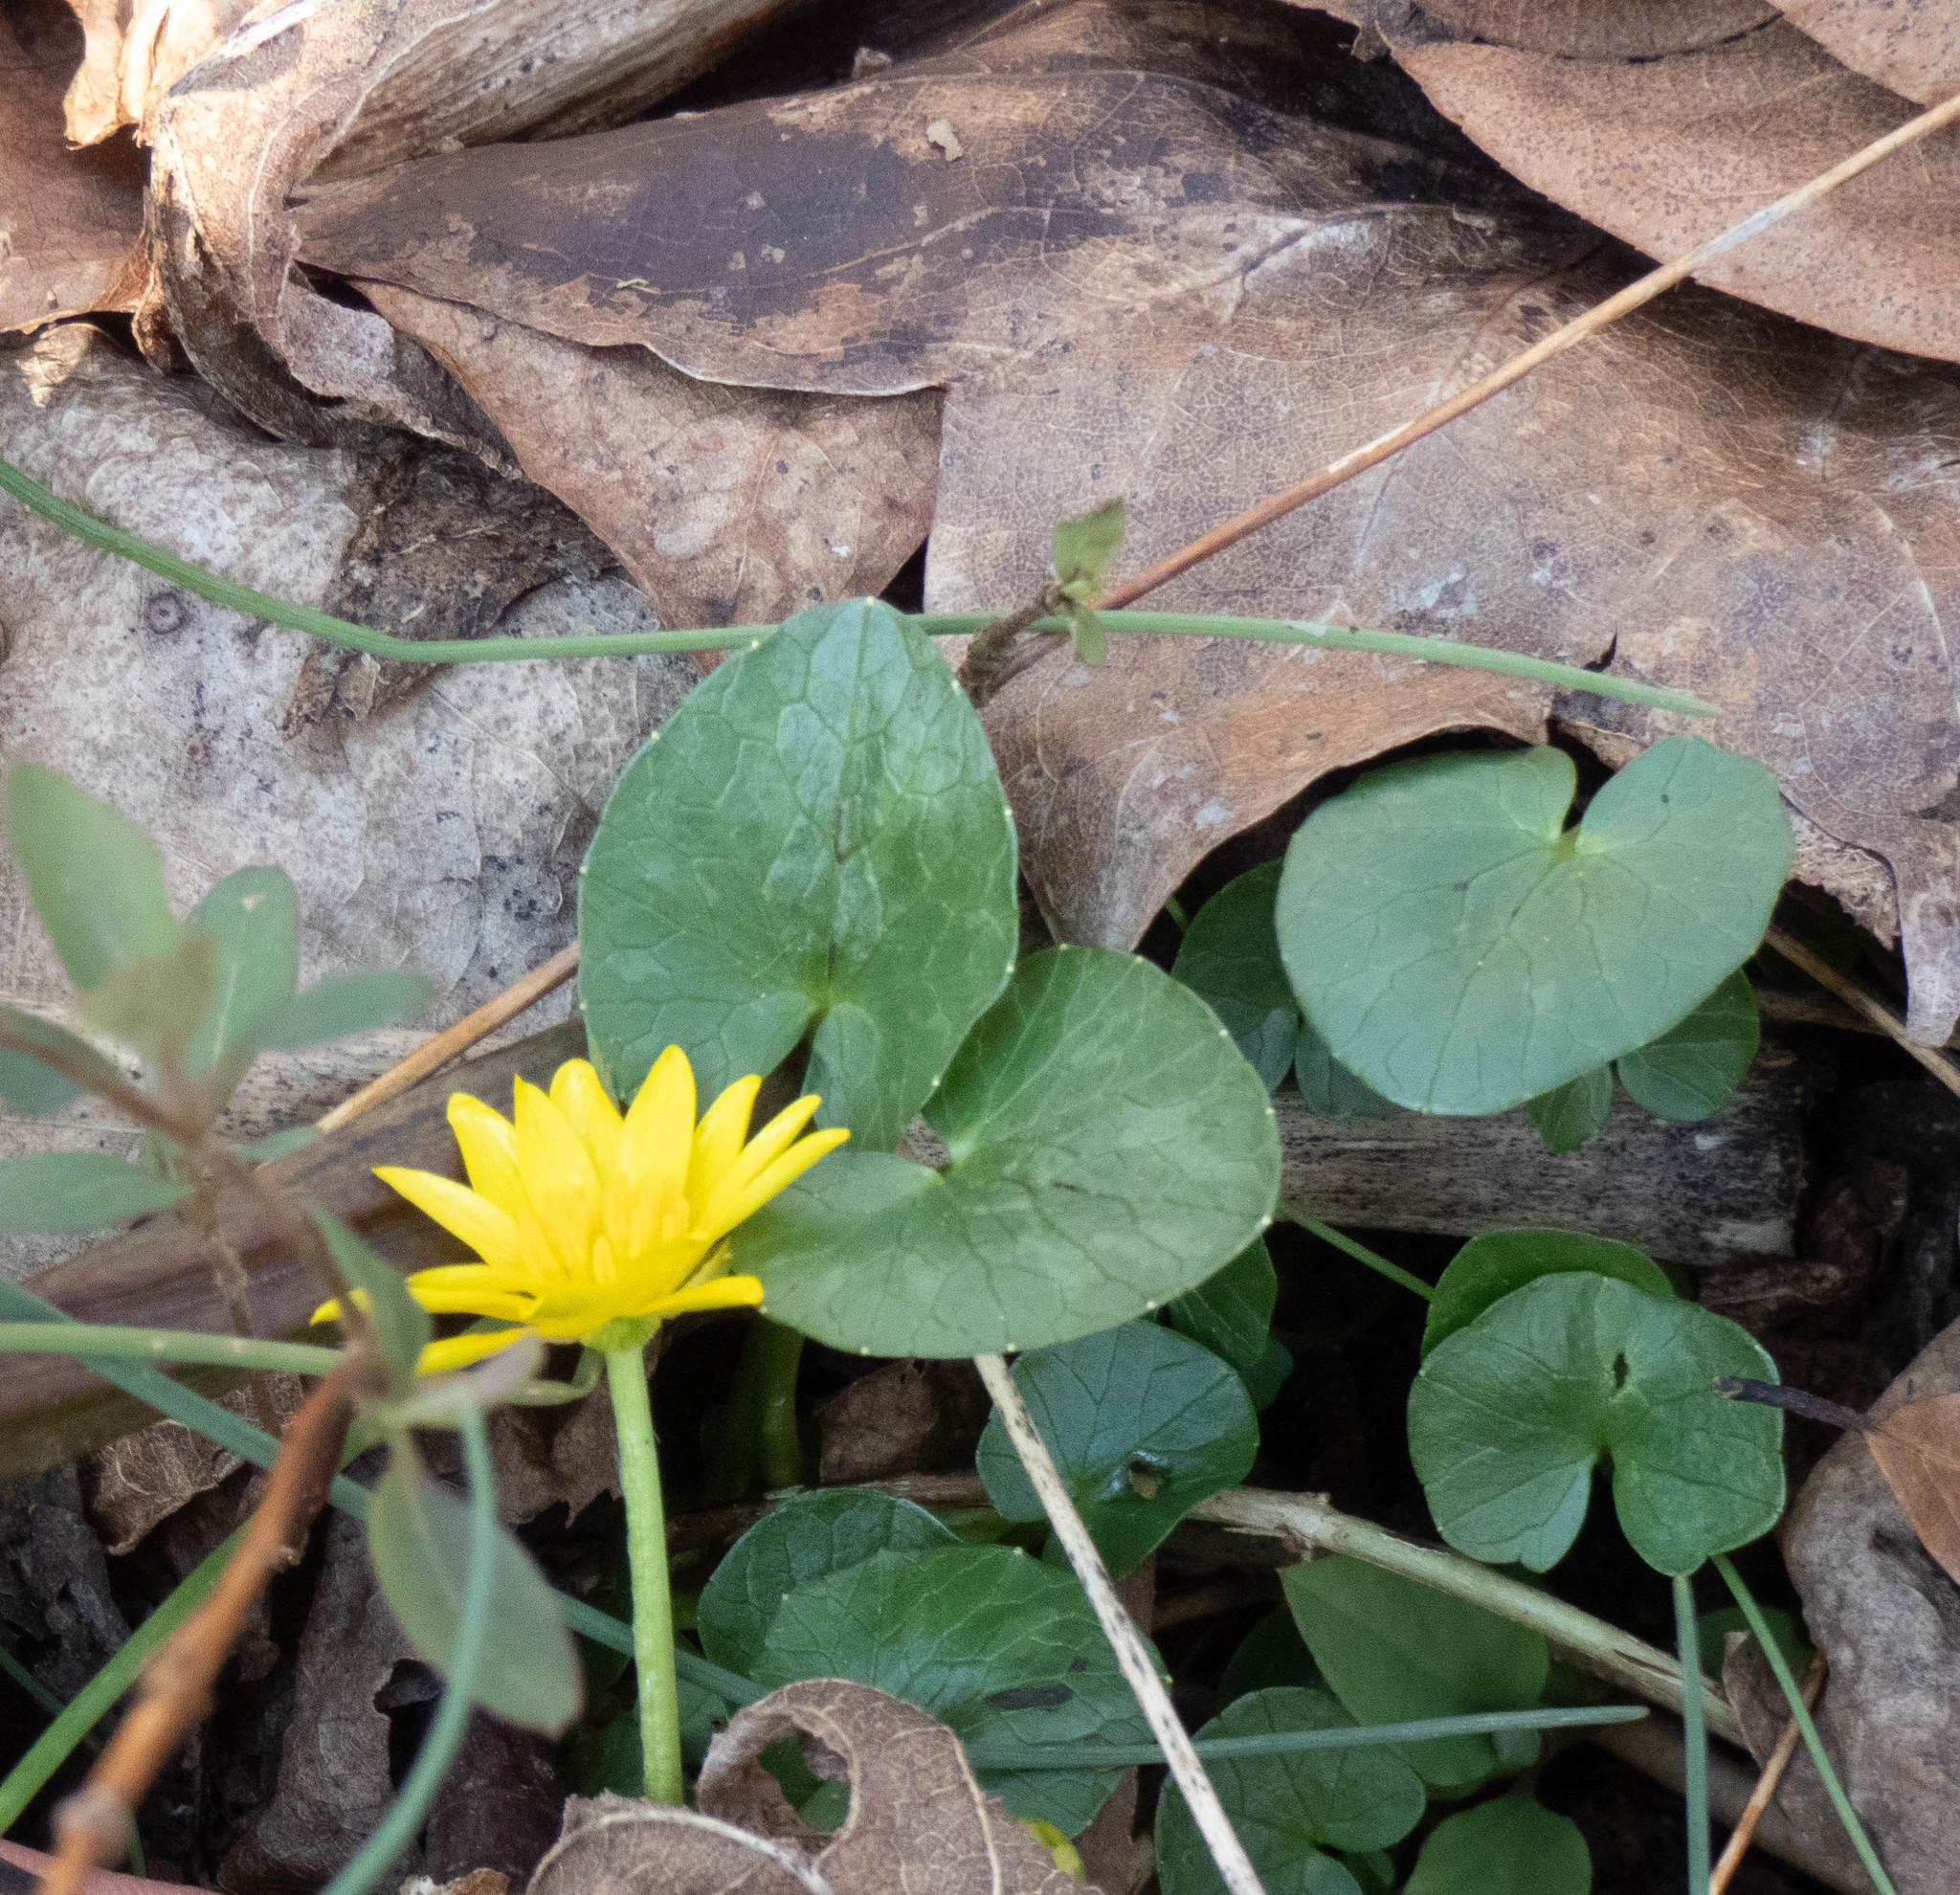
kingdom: Plantae
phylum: Tracheophyta
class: Magnoliopsida
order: Ranunculales
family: Ranunculaceae
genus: Ficaria
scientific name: Ficaria verna
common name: Lesser celandine
